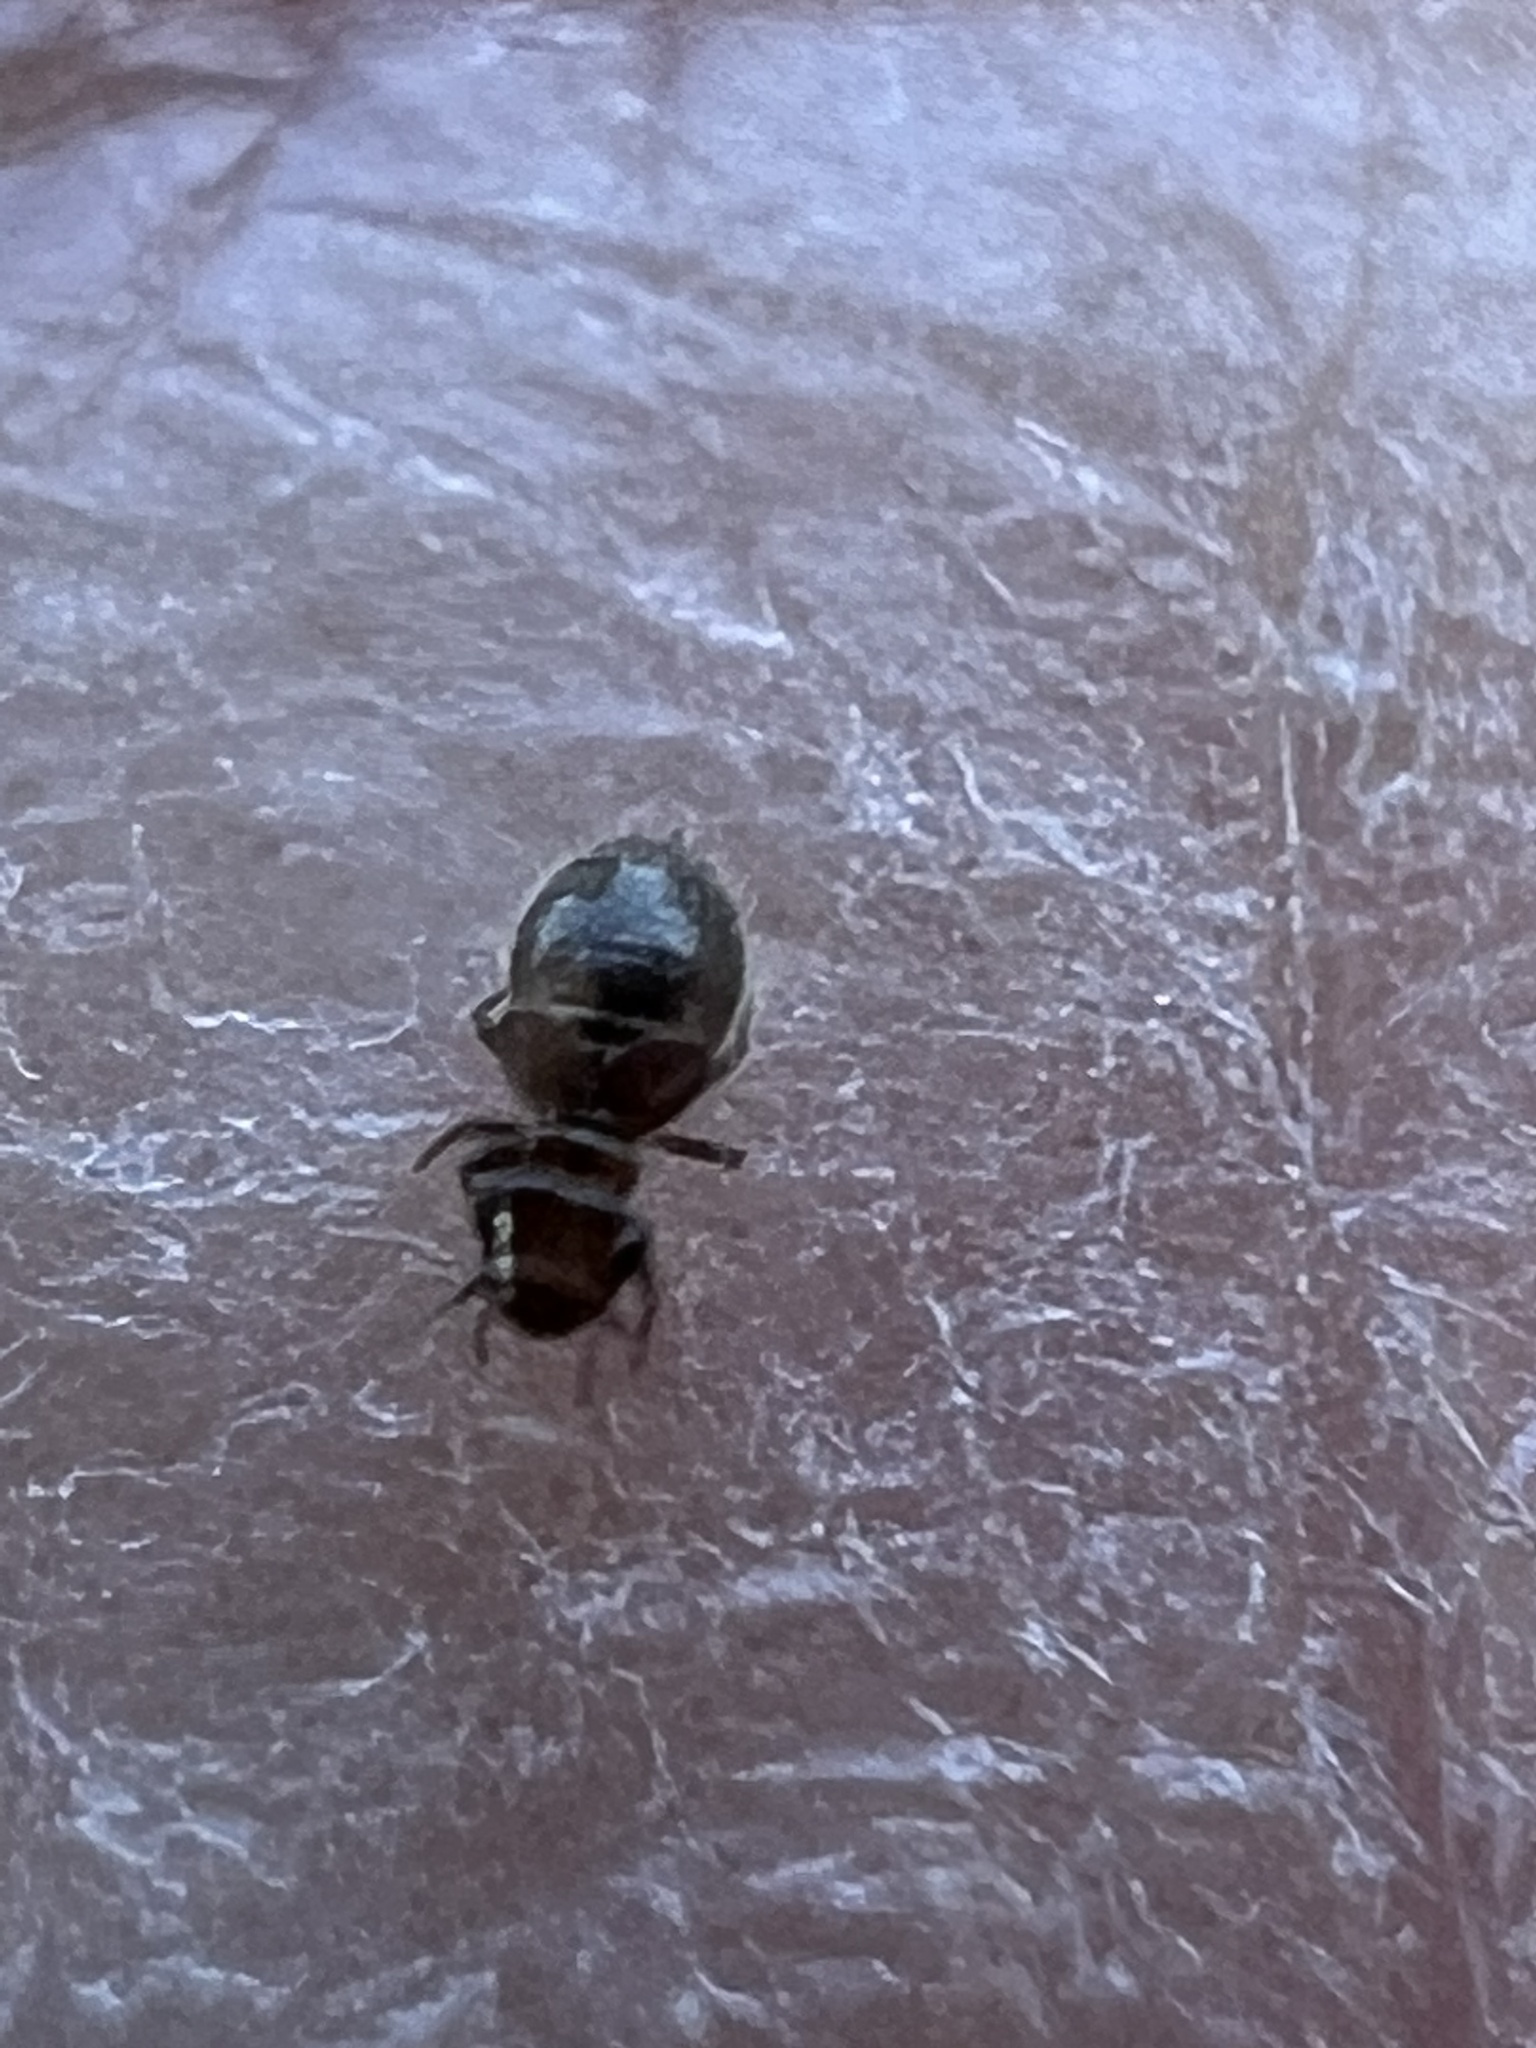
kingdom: Animalia
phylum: Arthropoda
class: Insecta
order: Psocodea
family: Trogiidae
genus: Lepinotus
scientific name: Lepinotus reticulatus
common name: Book lice
